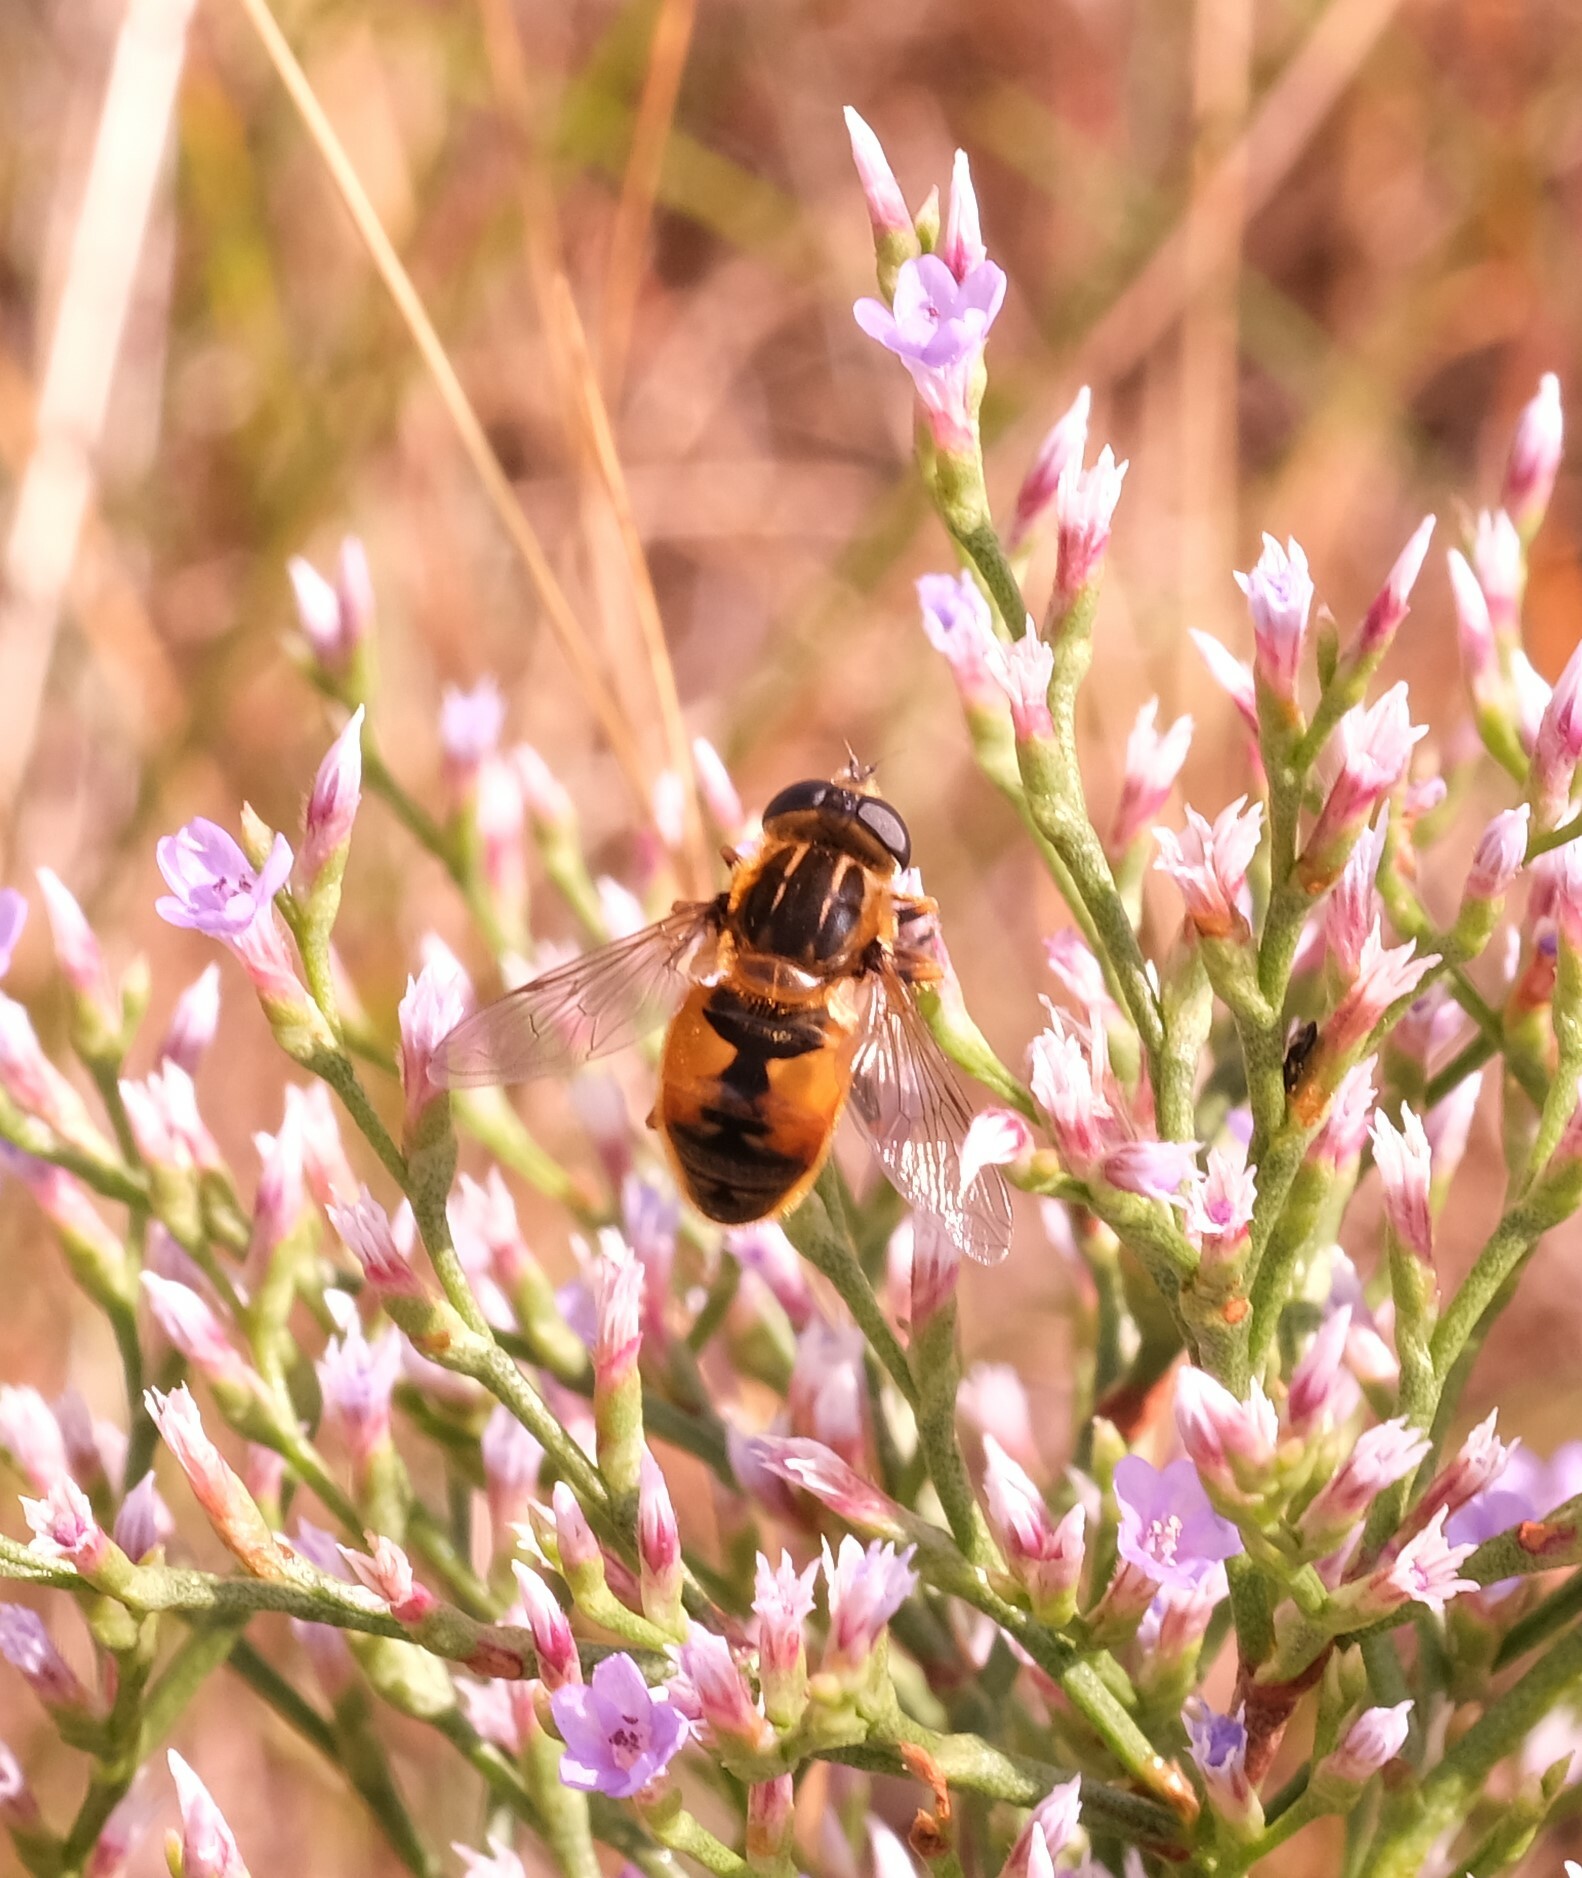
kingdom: Animalia
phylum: Arthropoda
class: Insecta
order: Diptera
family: Syrphidae
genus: Helophilus
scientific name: Helophilus lapponicus
